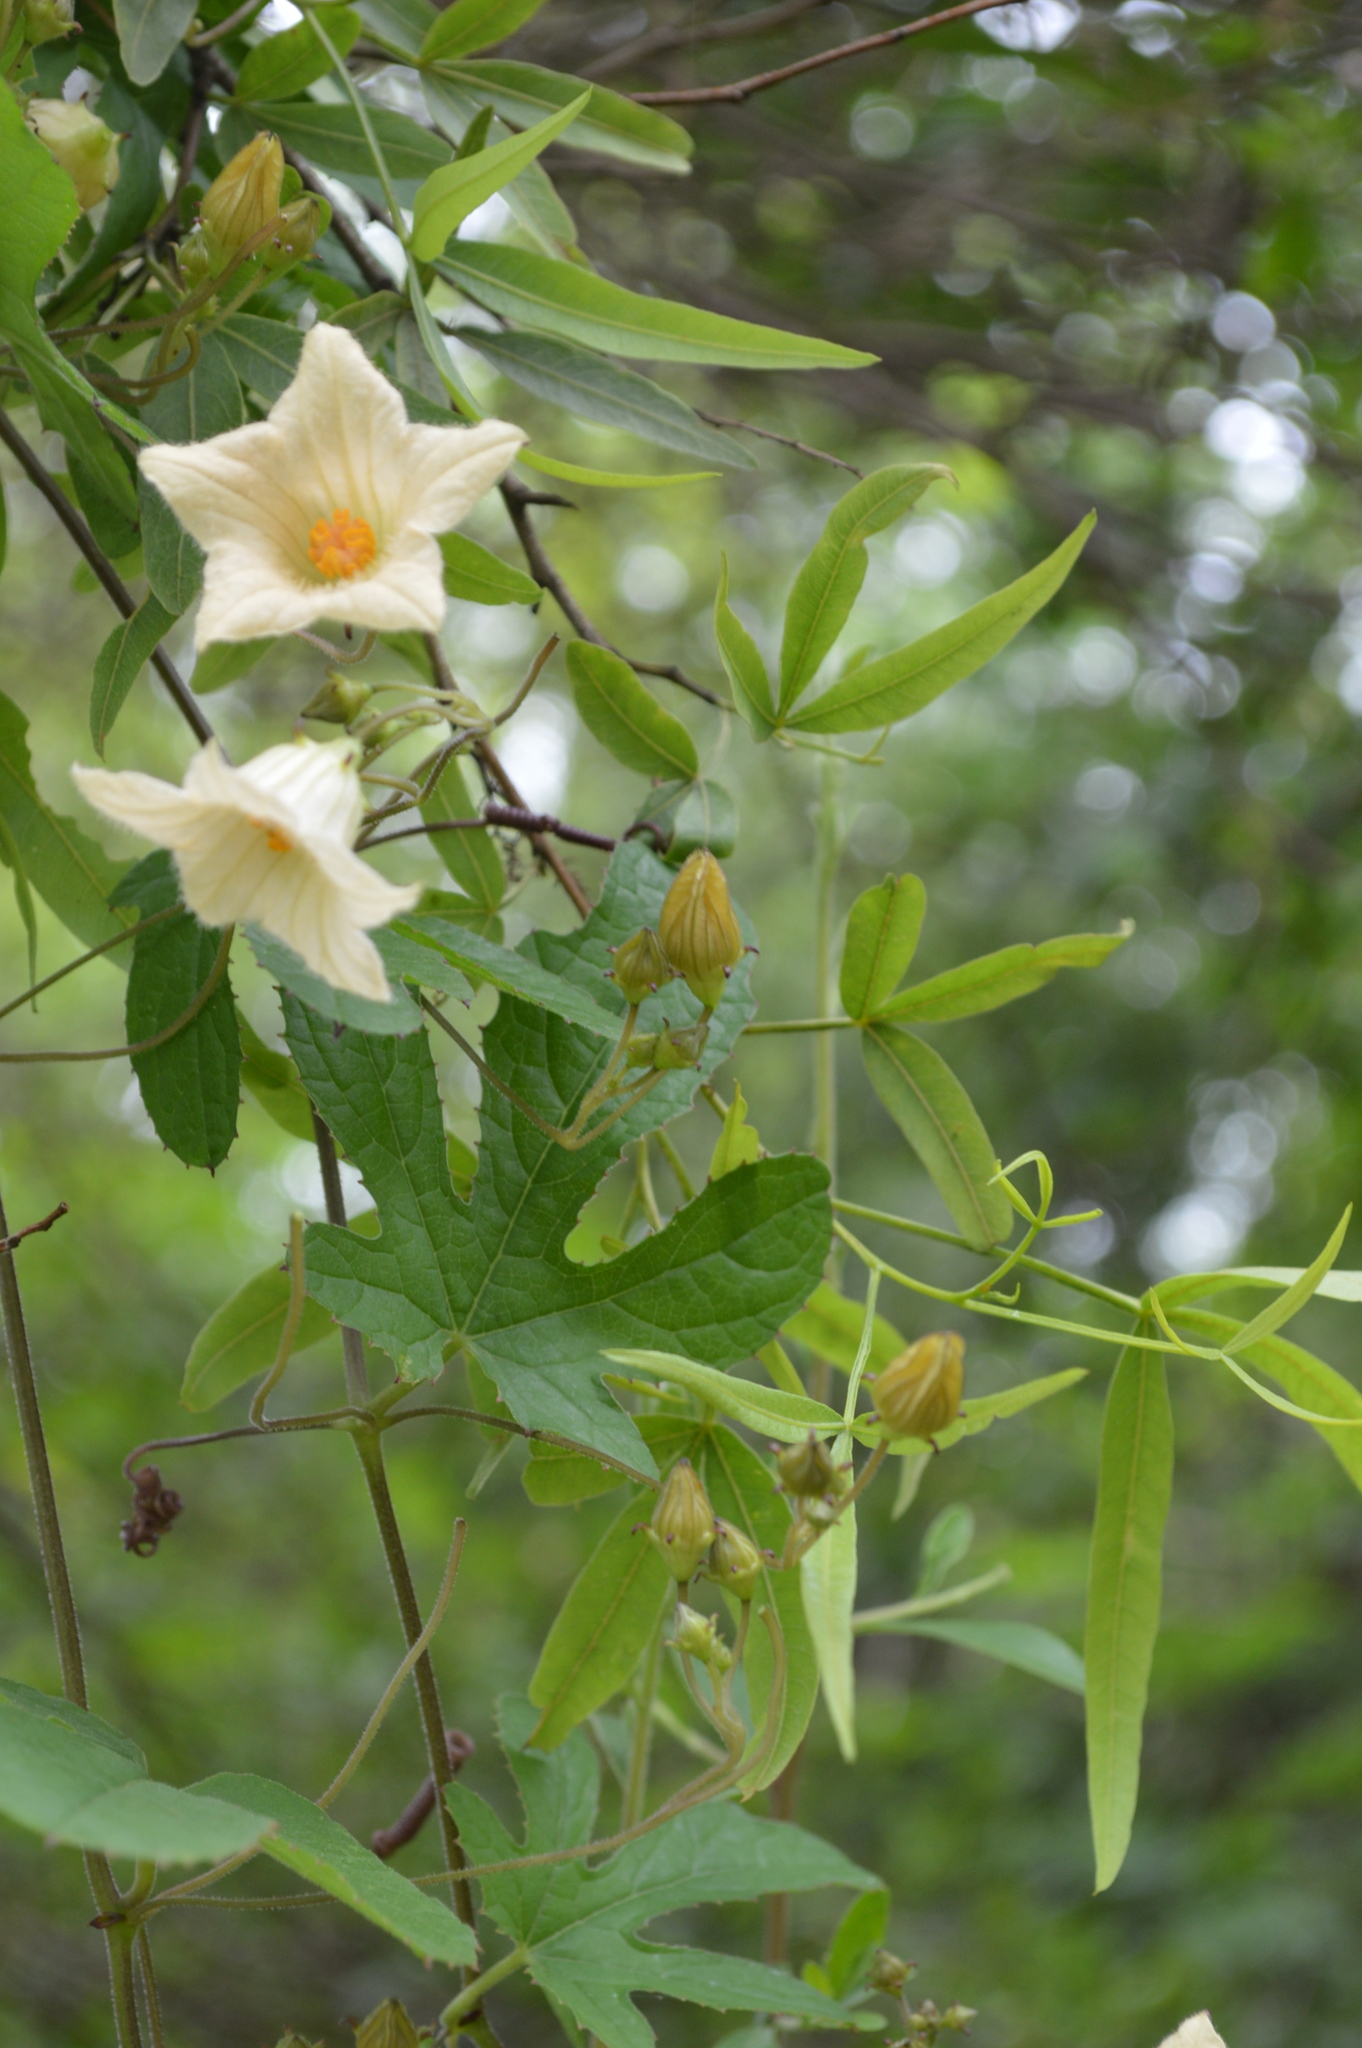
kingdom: Plantae
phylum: Tracheophyta
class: Magnoliopsida
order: Cucurbitales
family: Cucurbitaceae
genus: Coccinia
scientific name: Coccinia adoensis
